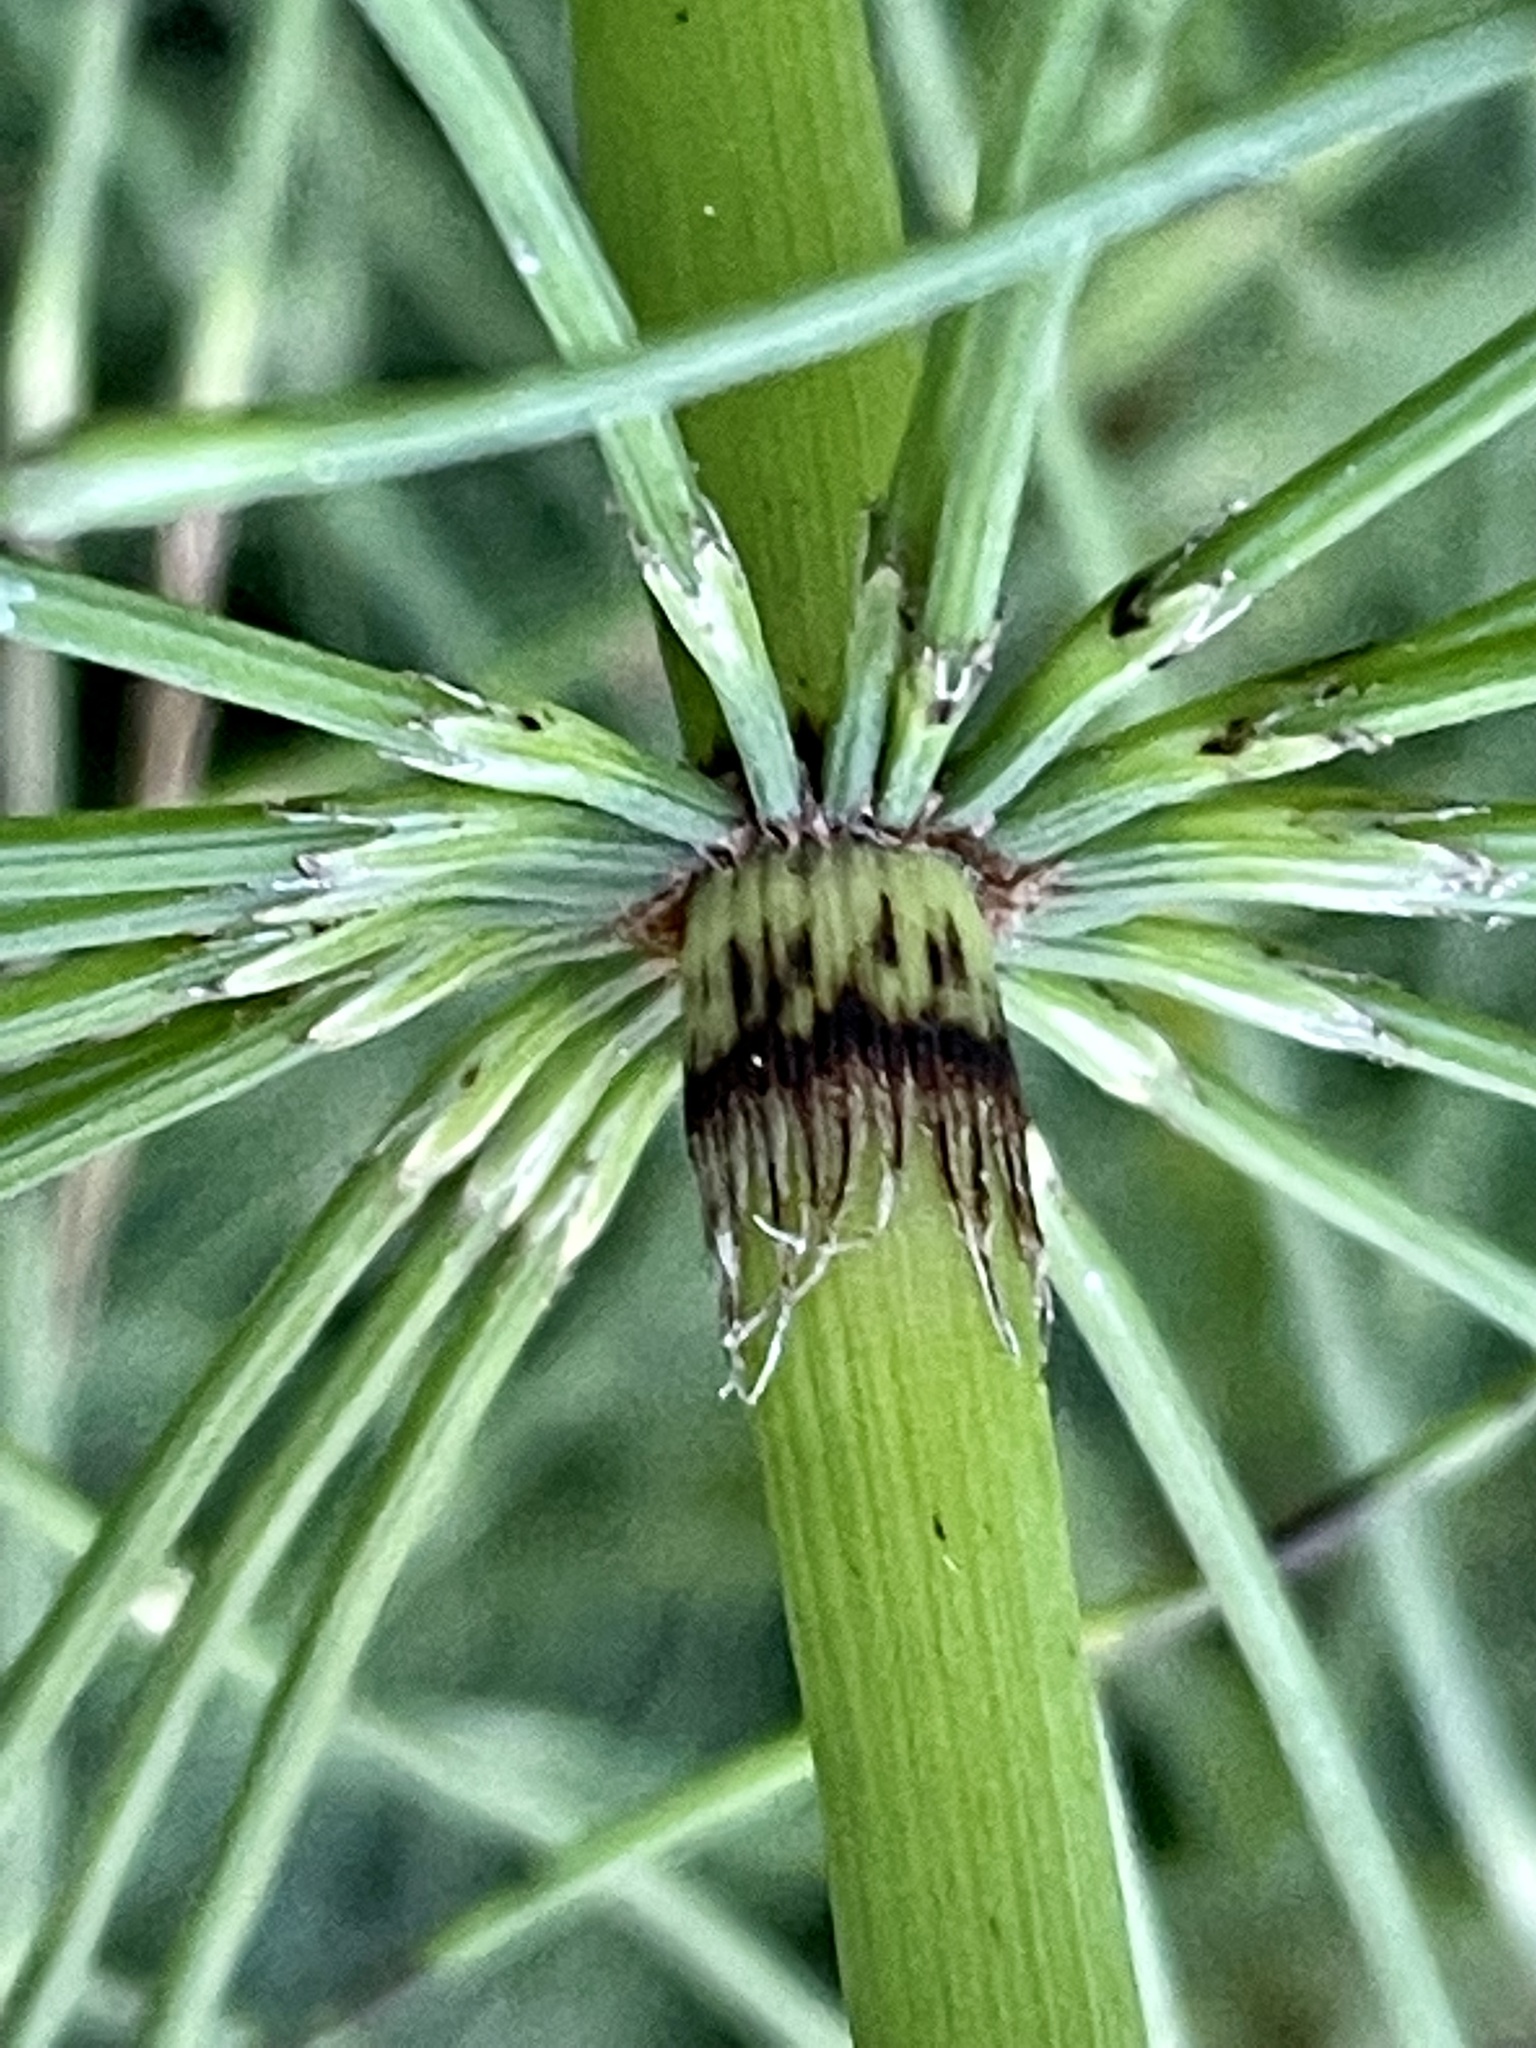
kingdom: Plantae
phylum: Tracheophyta
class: Polypodiopsida
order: Equisetales
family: Equisetaceae
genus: Equisetum
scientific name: Equisetum telmateia
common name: Great horsetail
